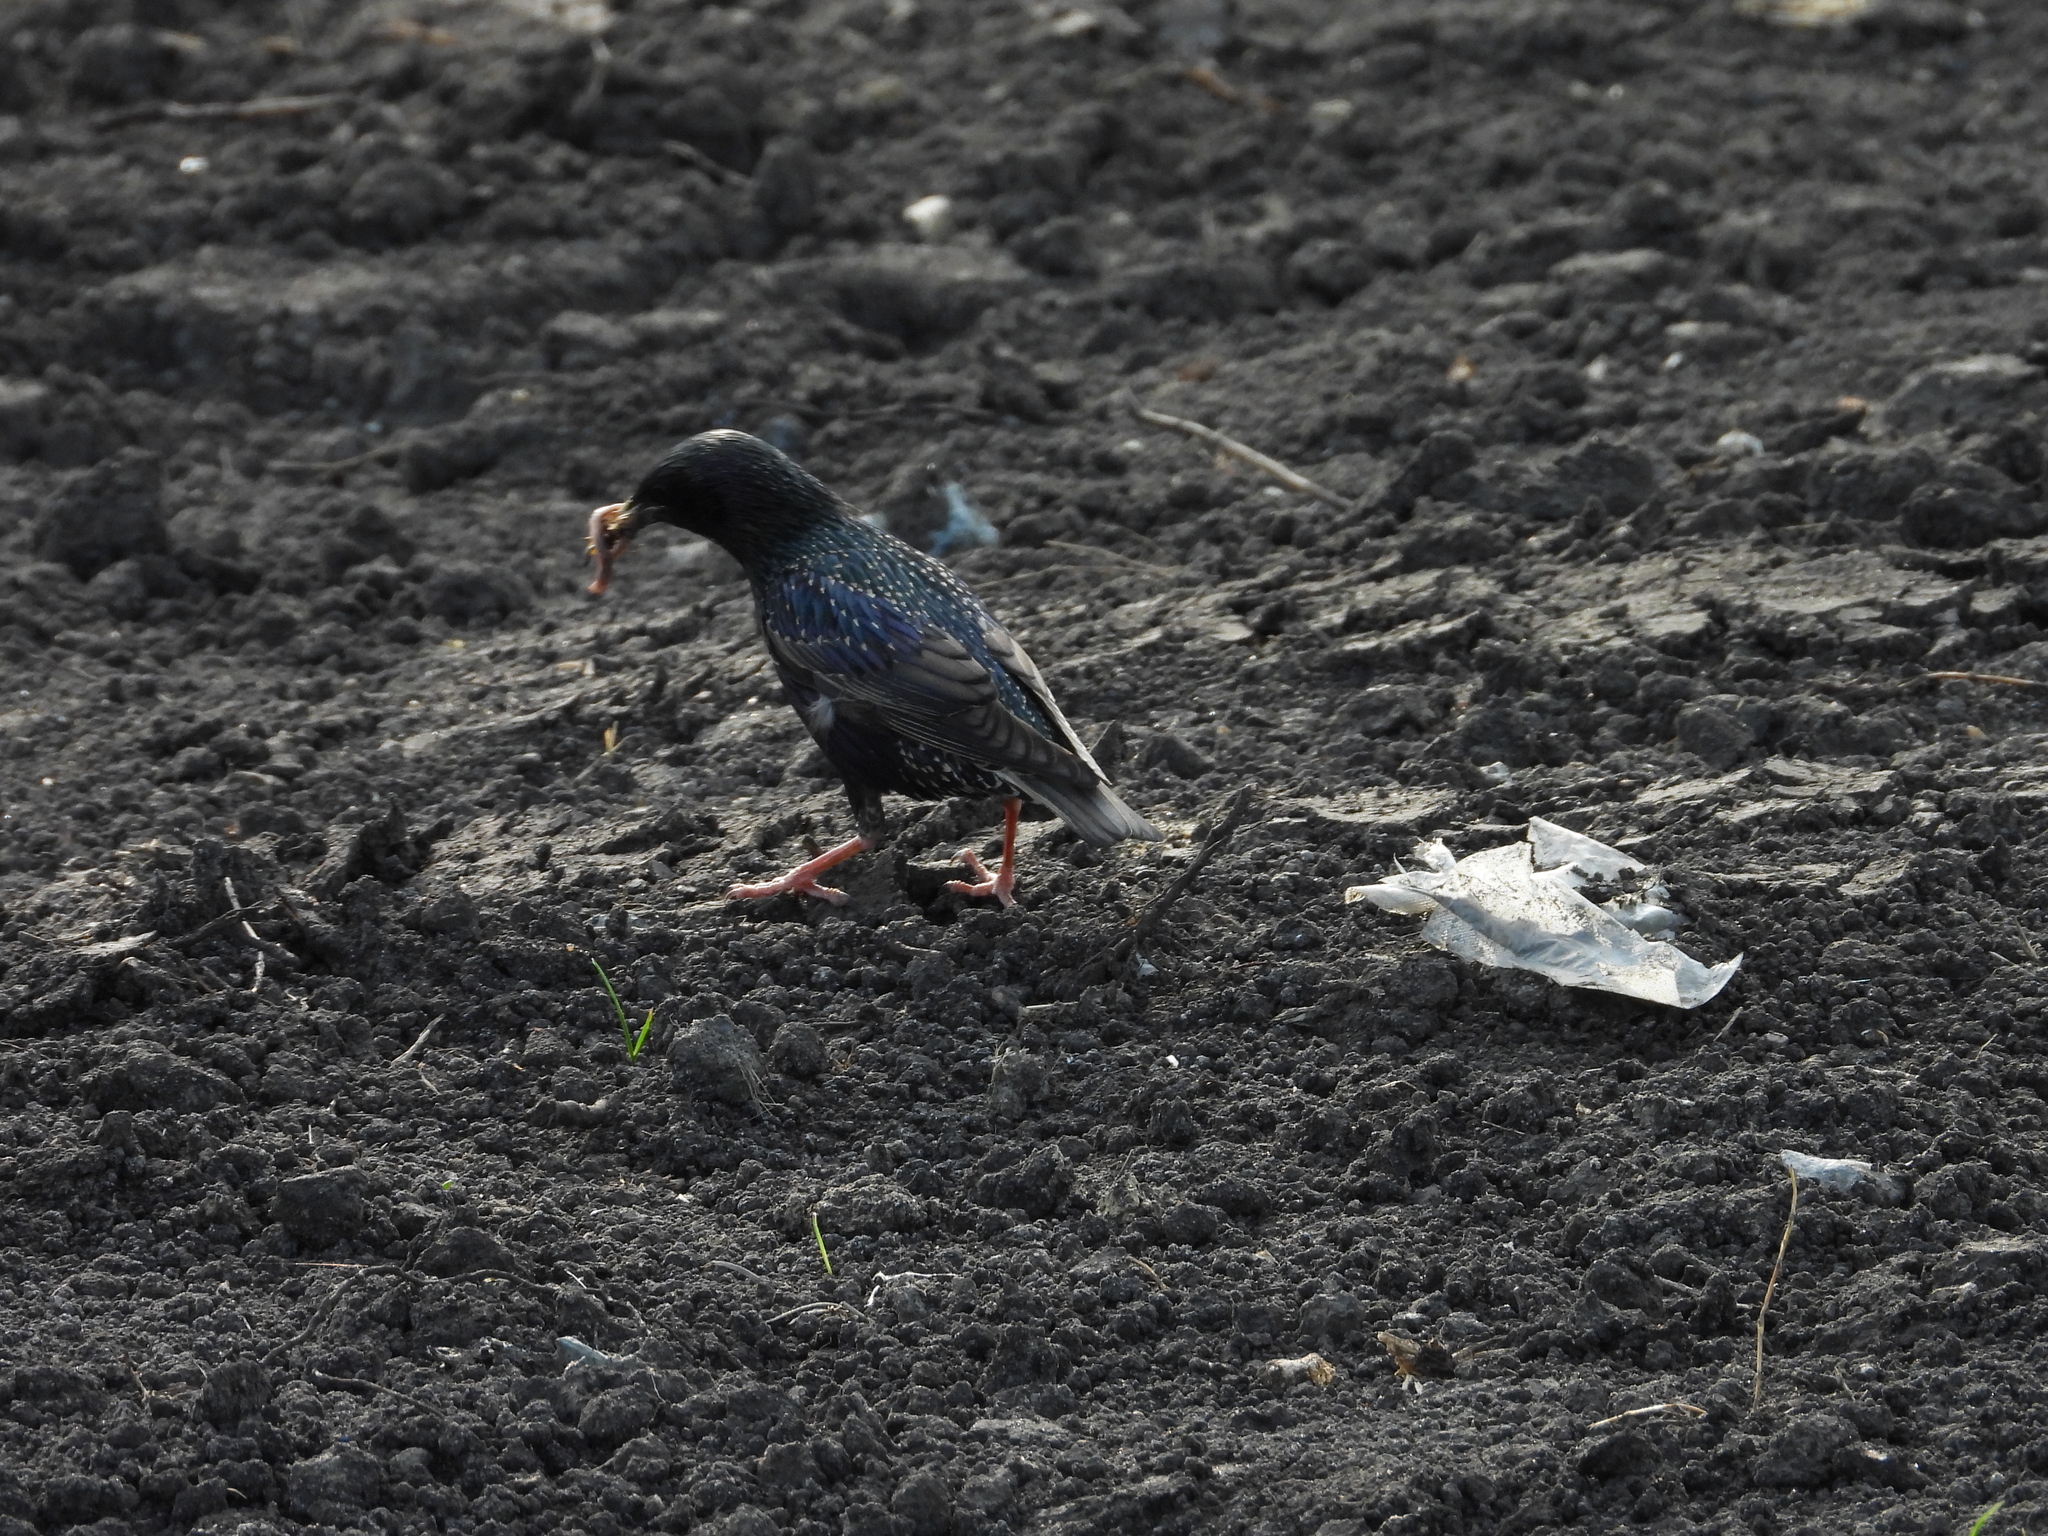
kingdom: Animalia
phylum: Chordata
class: Aves
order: Passeriformes
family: Sturnidae
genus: Sturnus
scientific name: Sturnus vulgaris
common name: Common starling
